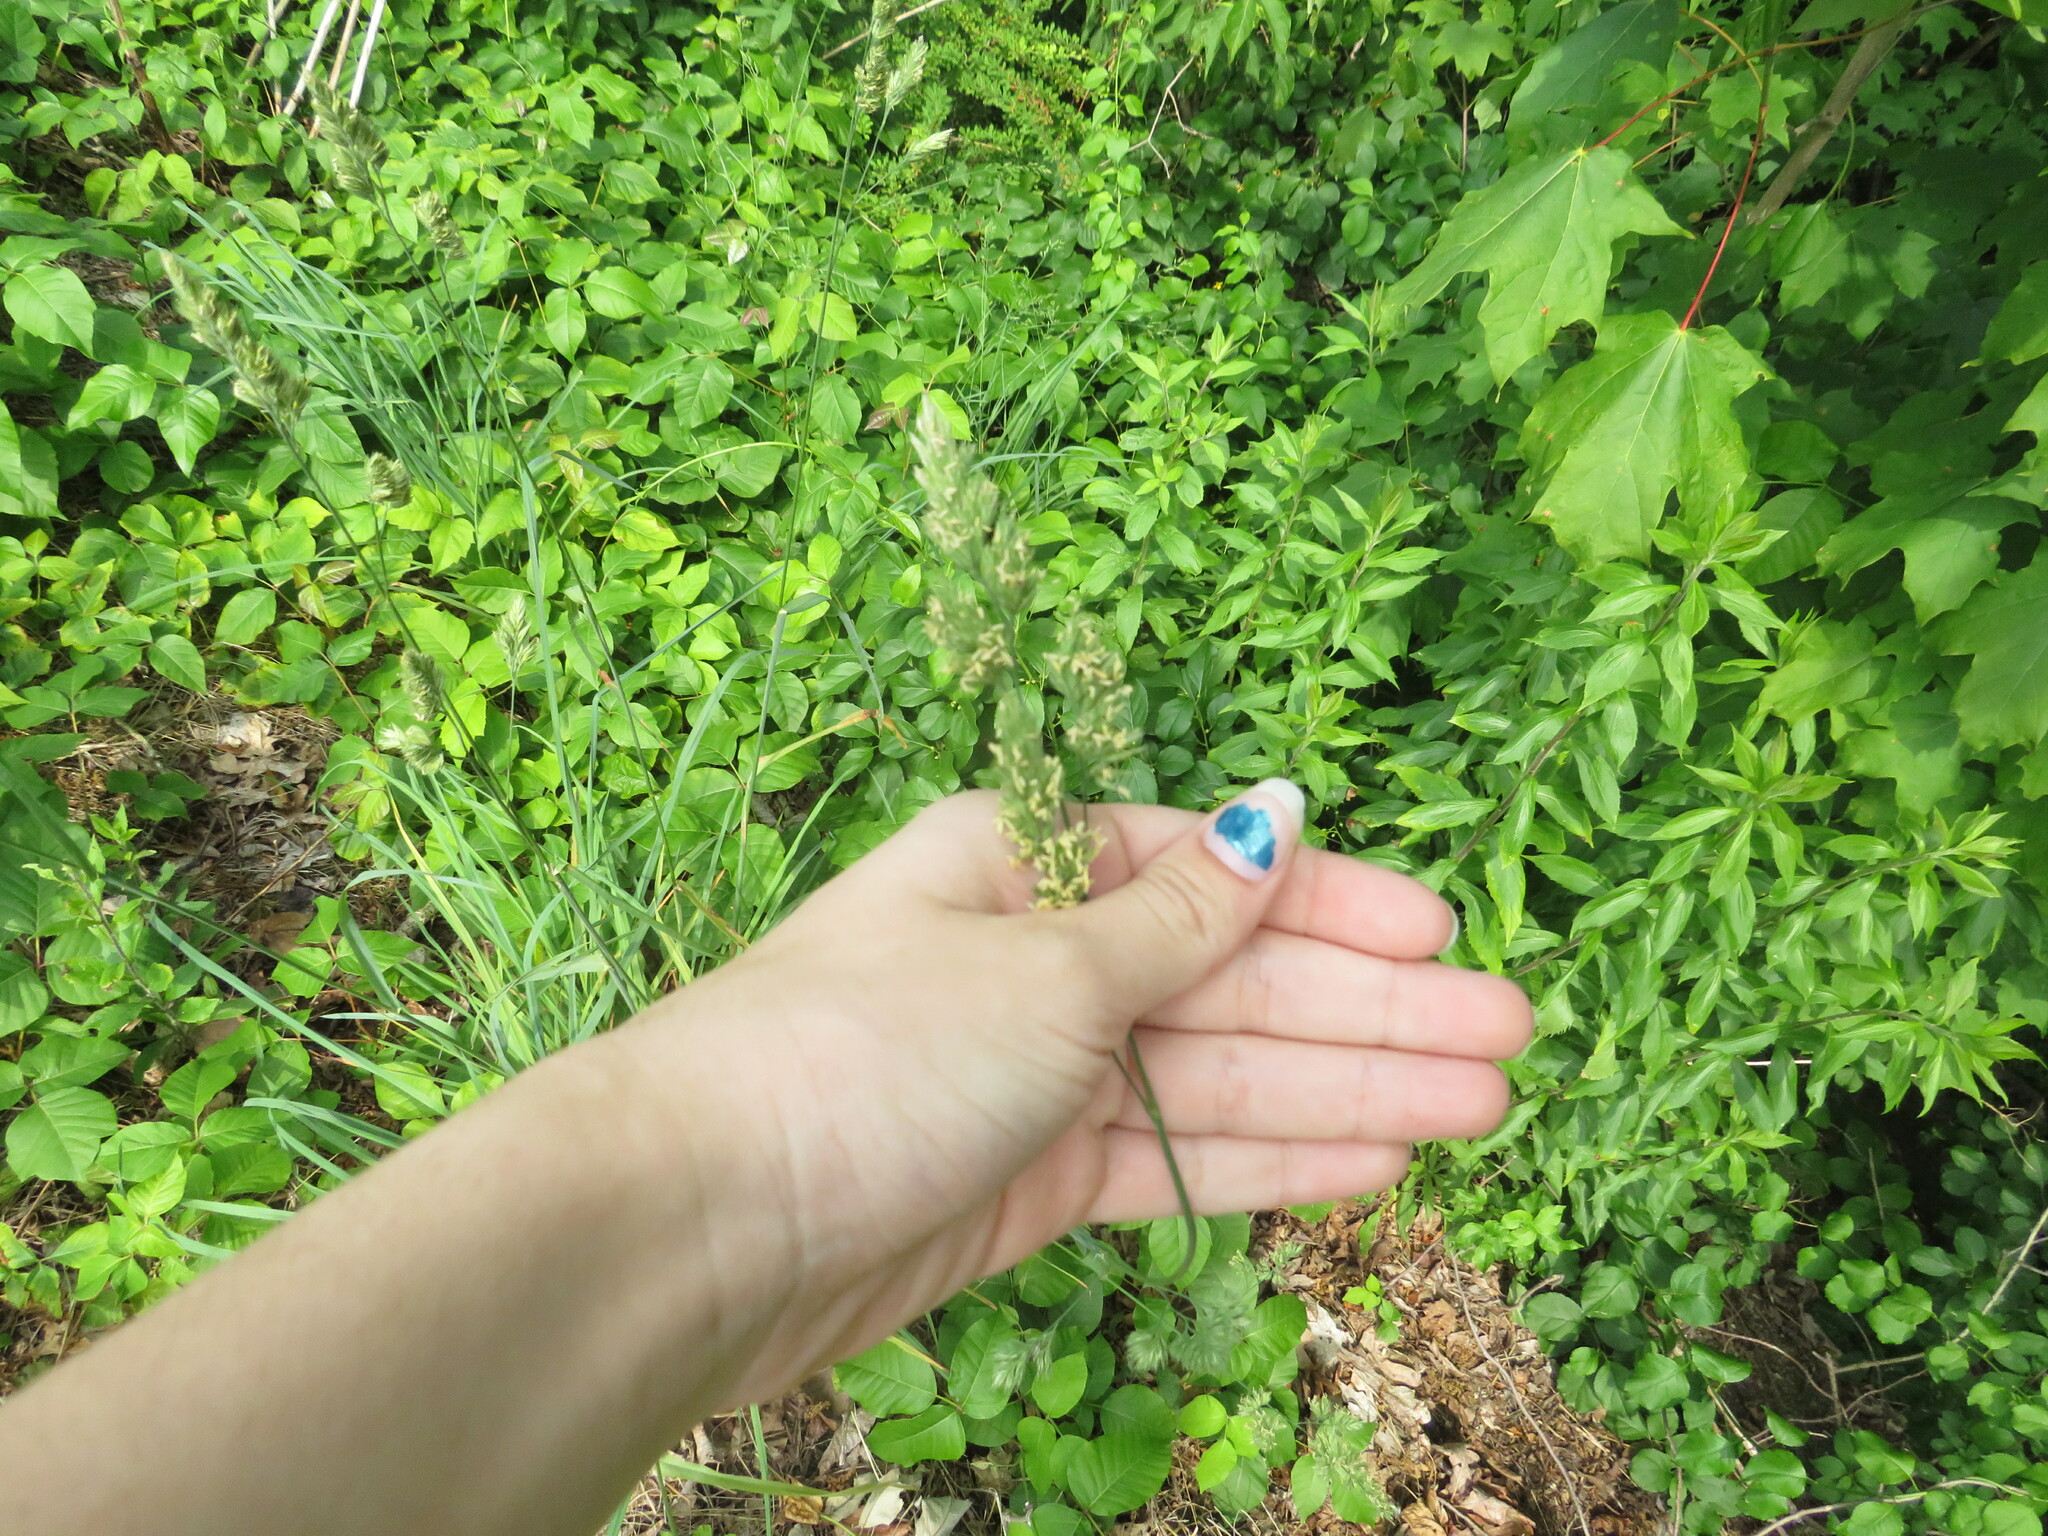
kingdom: Plantae
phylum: Tracheophyta
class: Liliopsida
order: Poales
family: Poaceae
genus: Dactylis
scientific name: Dactylis glomerata
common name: Orchardgrass
